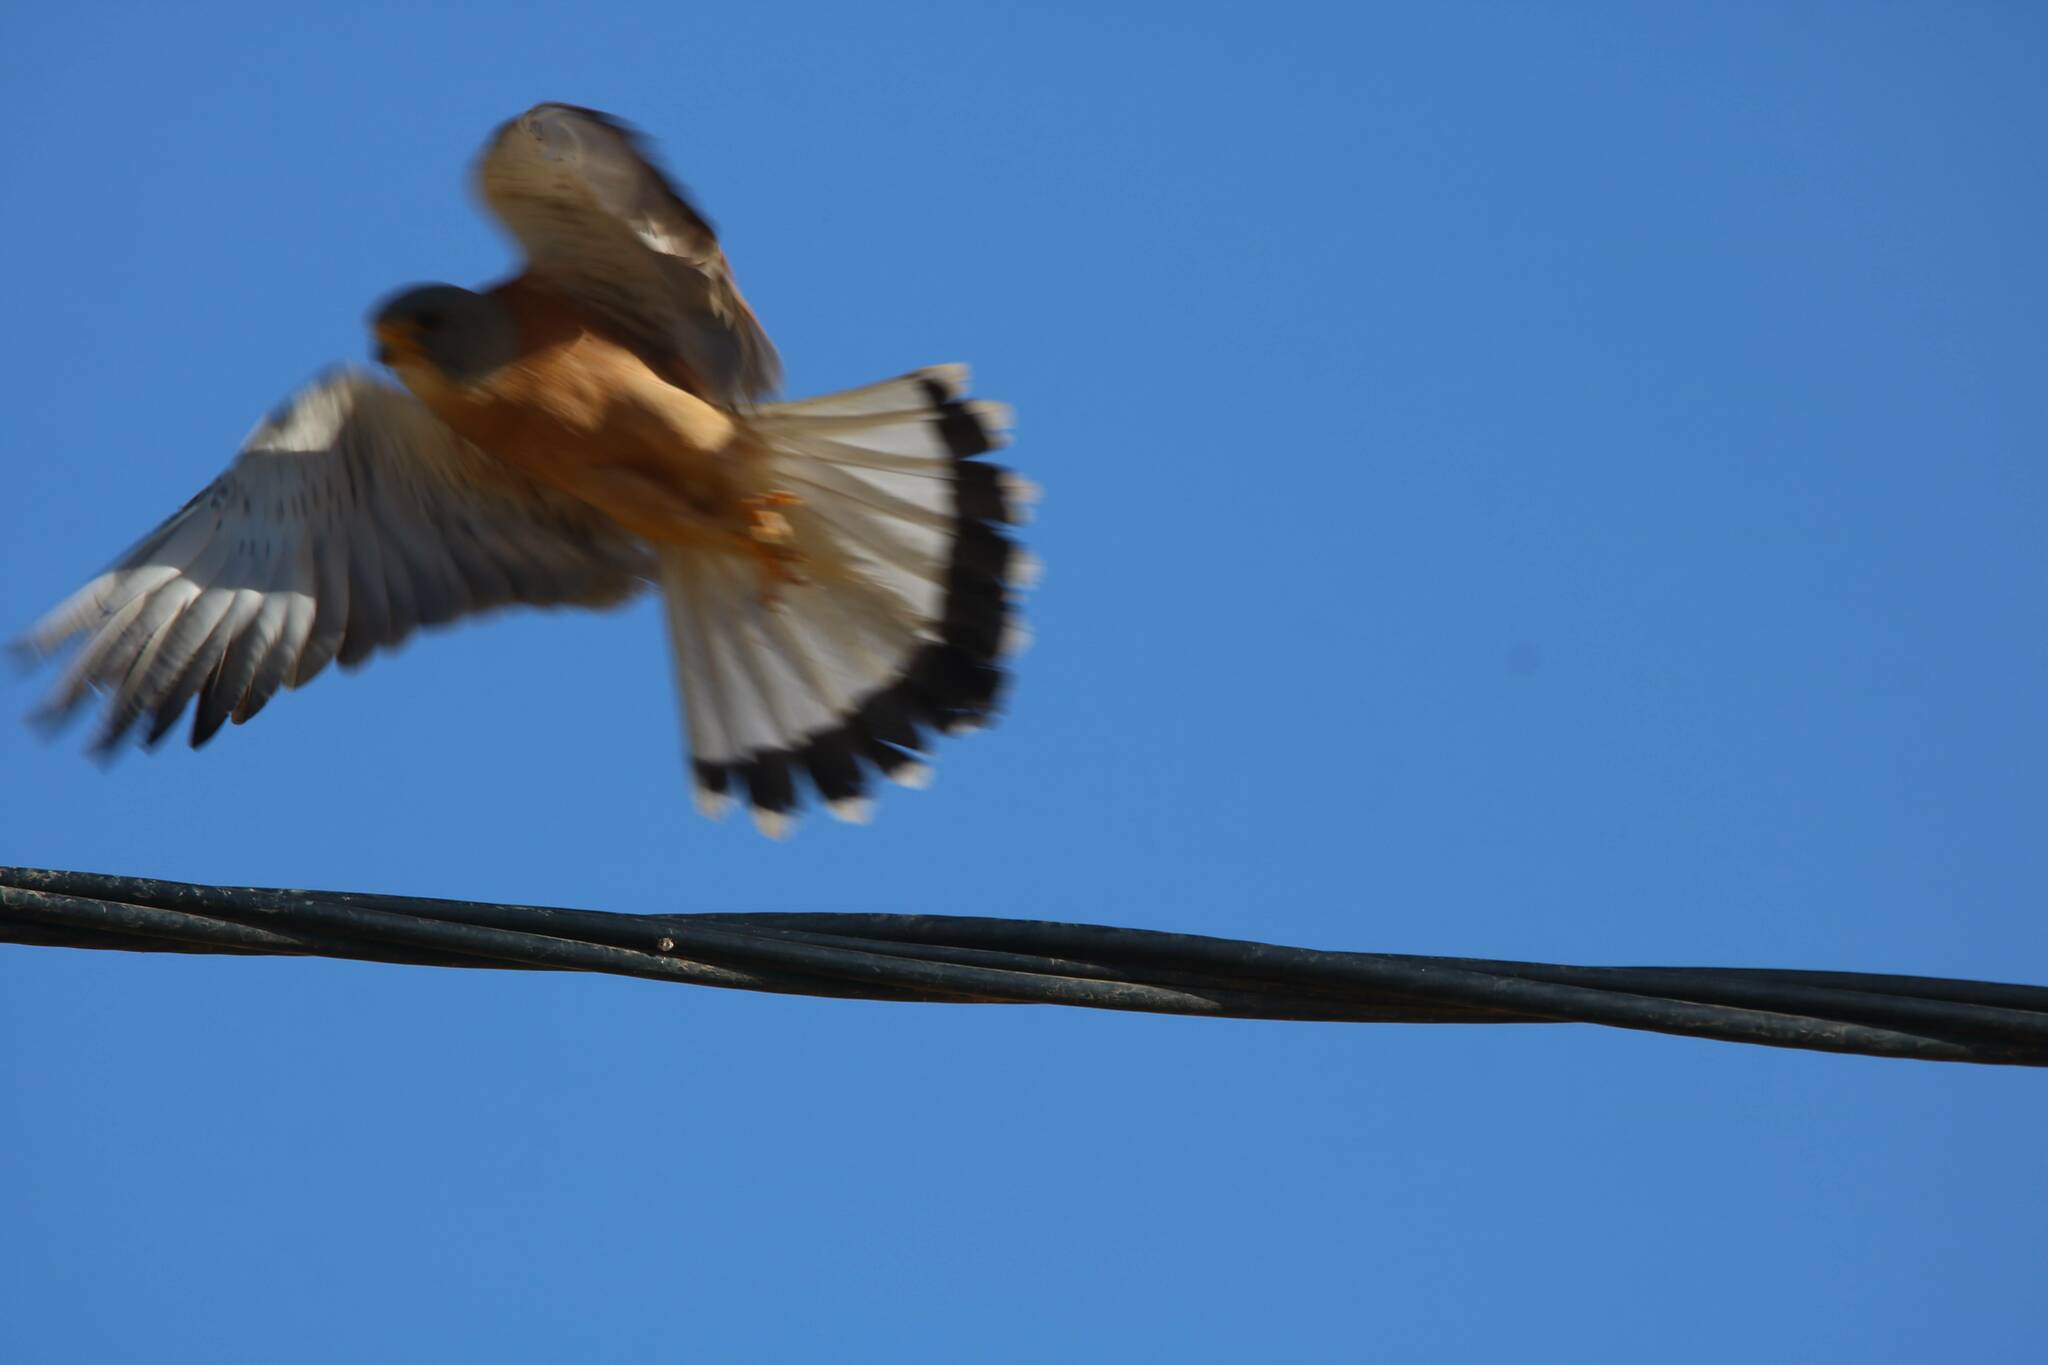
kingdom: Animalia
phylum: Chordata
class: Aves
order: Falconiformes
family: Falconidae
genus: Falco
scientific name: Falco naumanni
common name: Lesser kestrel
